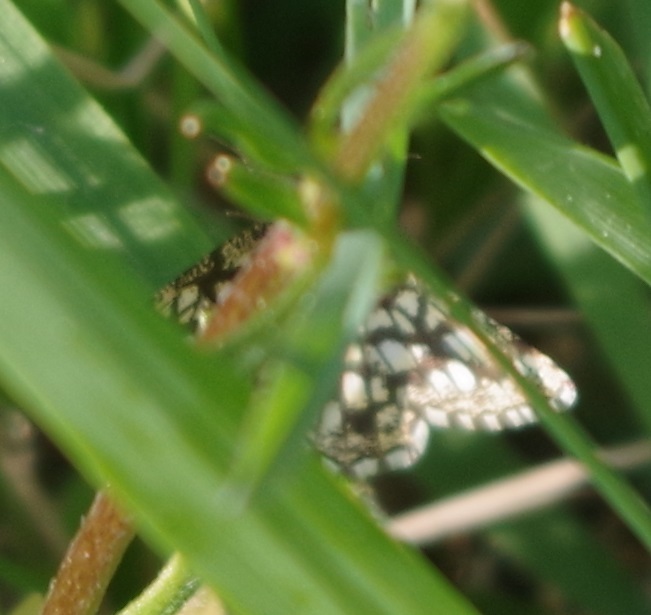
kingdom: Animalia
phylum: Arthropoda
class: Insecta
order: Lepidoptera
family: Geometridae
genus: Chiasmia
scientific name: Chiasmia clathrata
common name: Latticed heath
